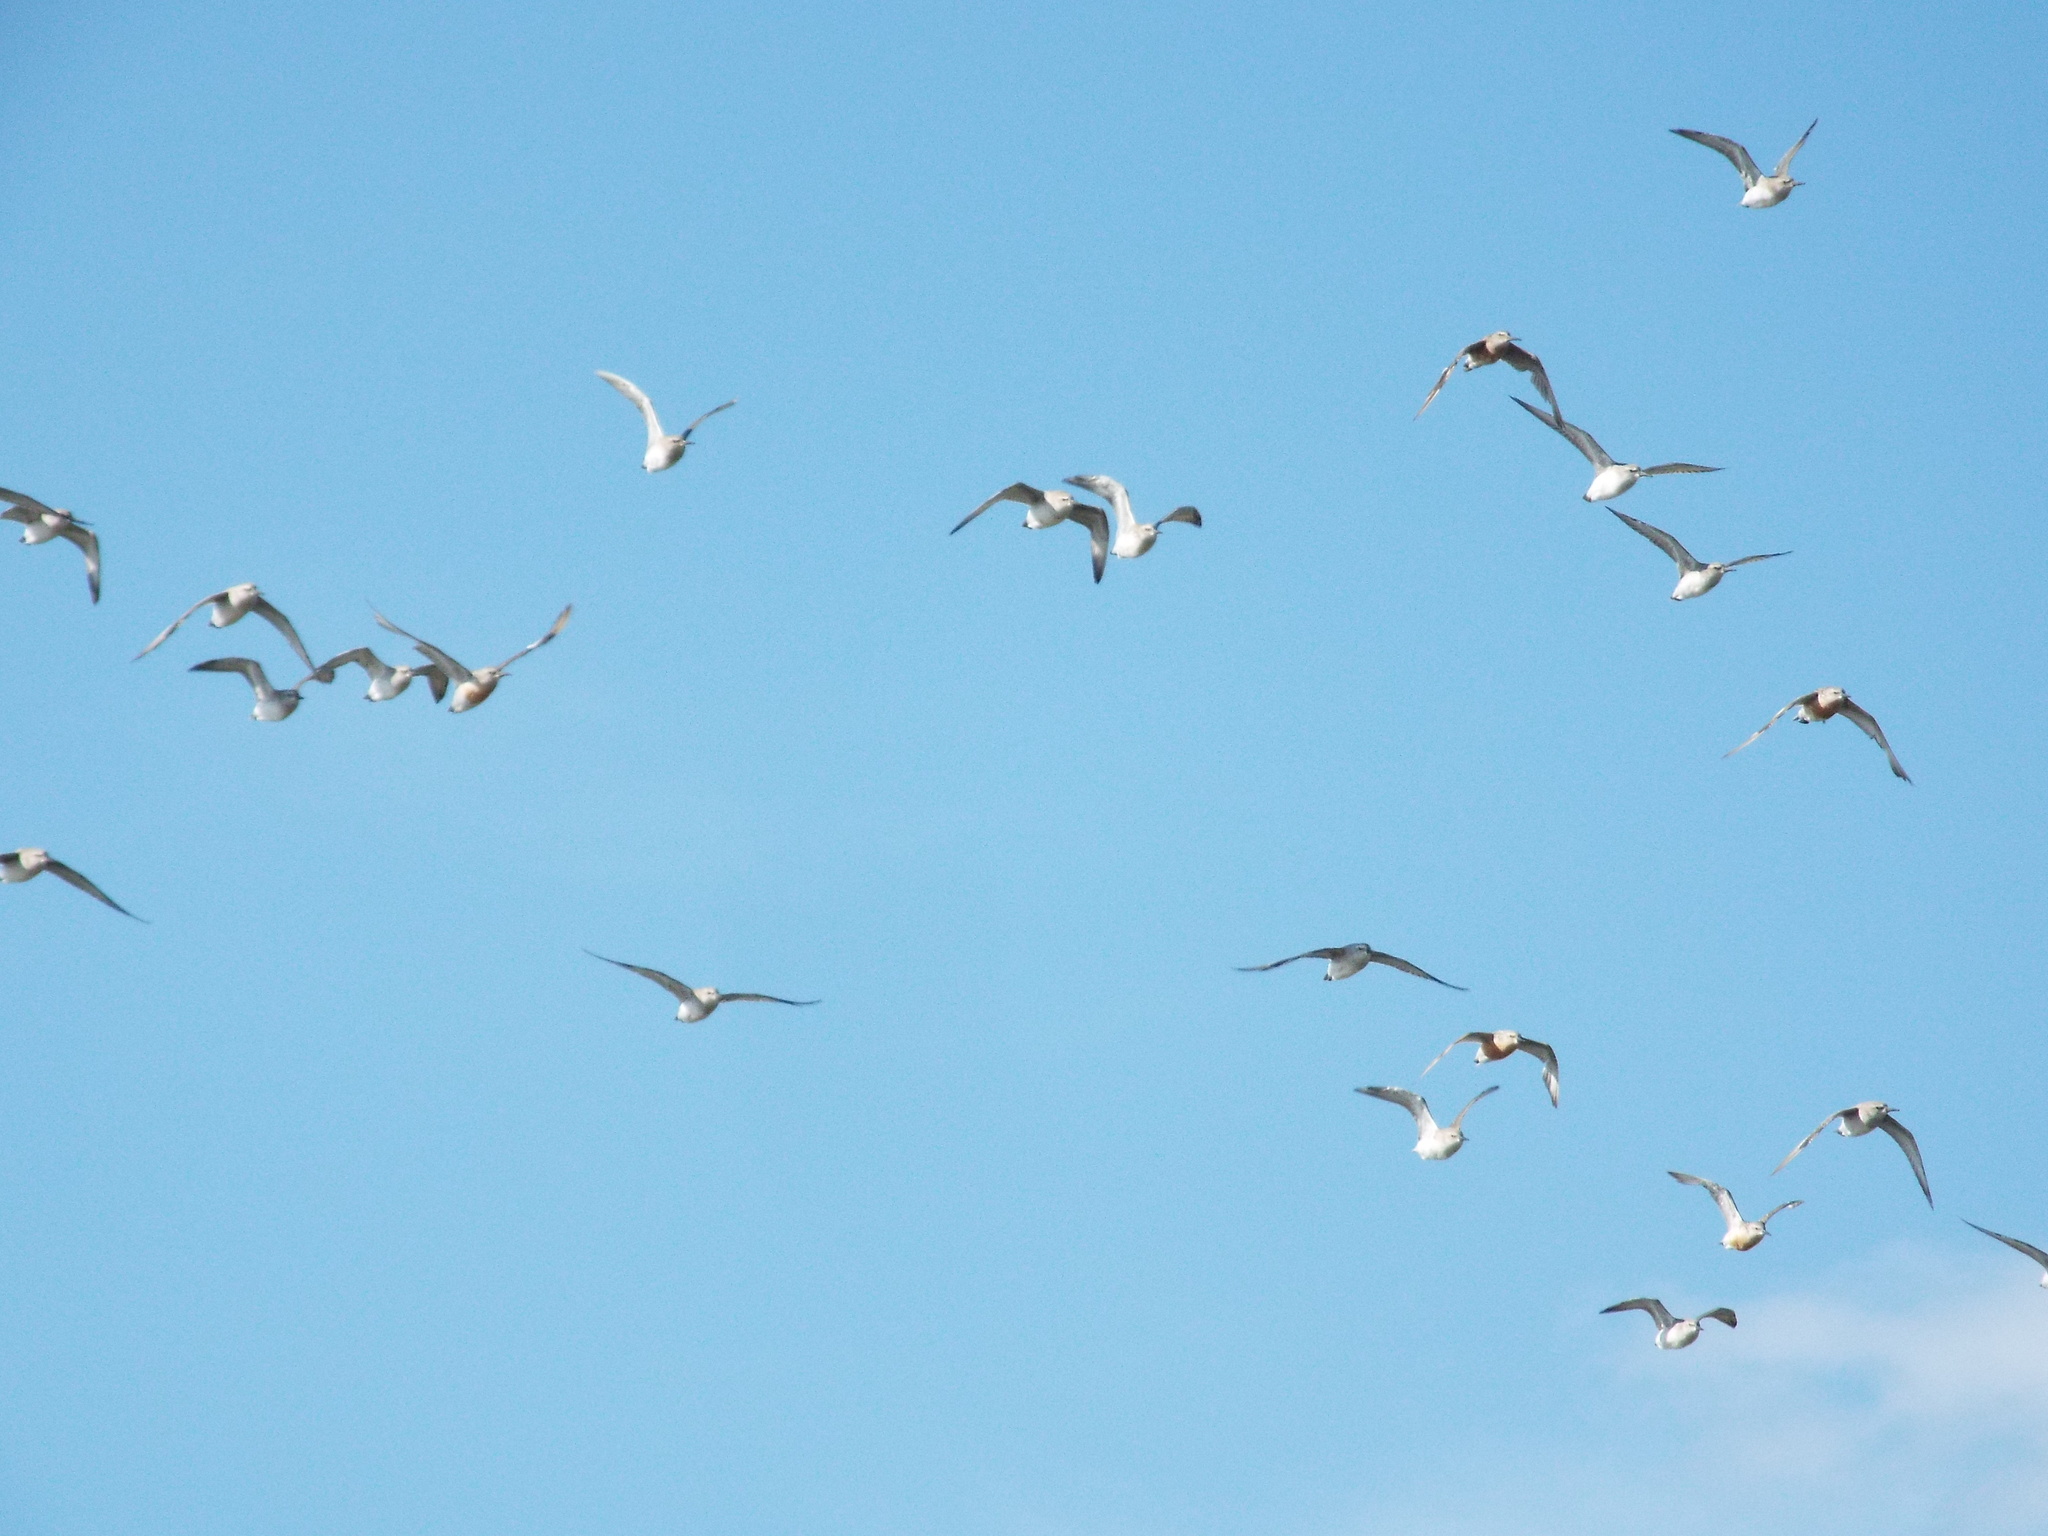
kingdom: Animalia
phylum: Chordata
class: Aves
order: Charadriiformes
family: Scolopacidae
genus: Calidris
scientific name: Calidris canutus
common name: Red knot
